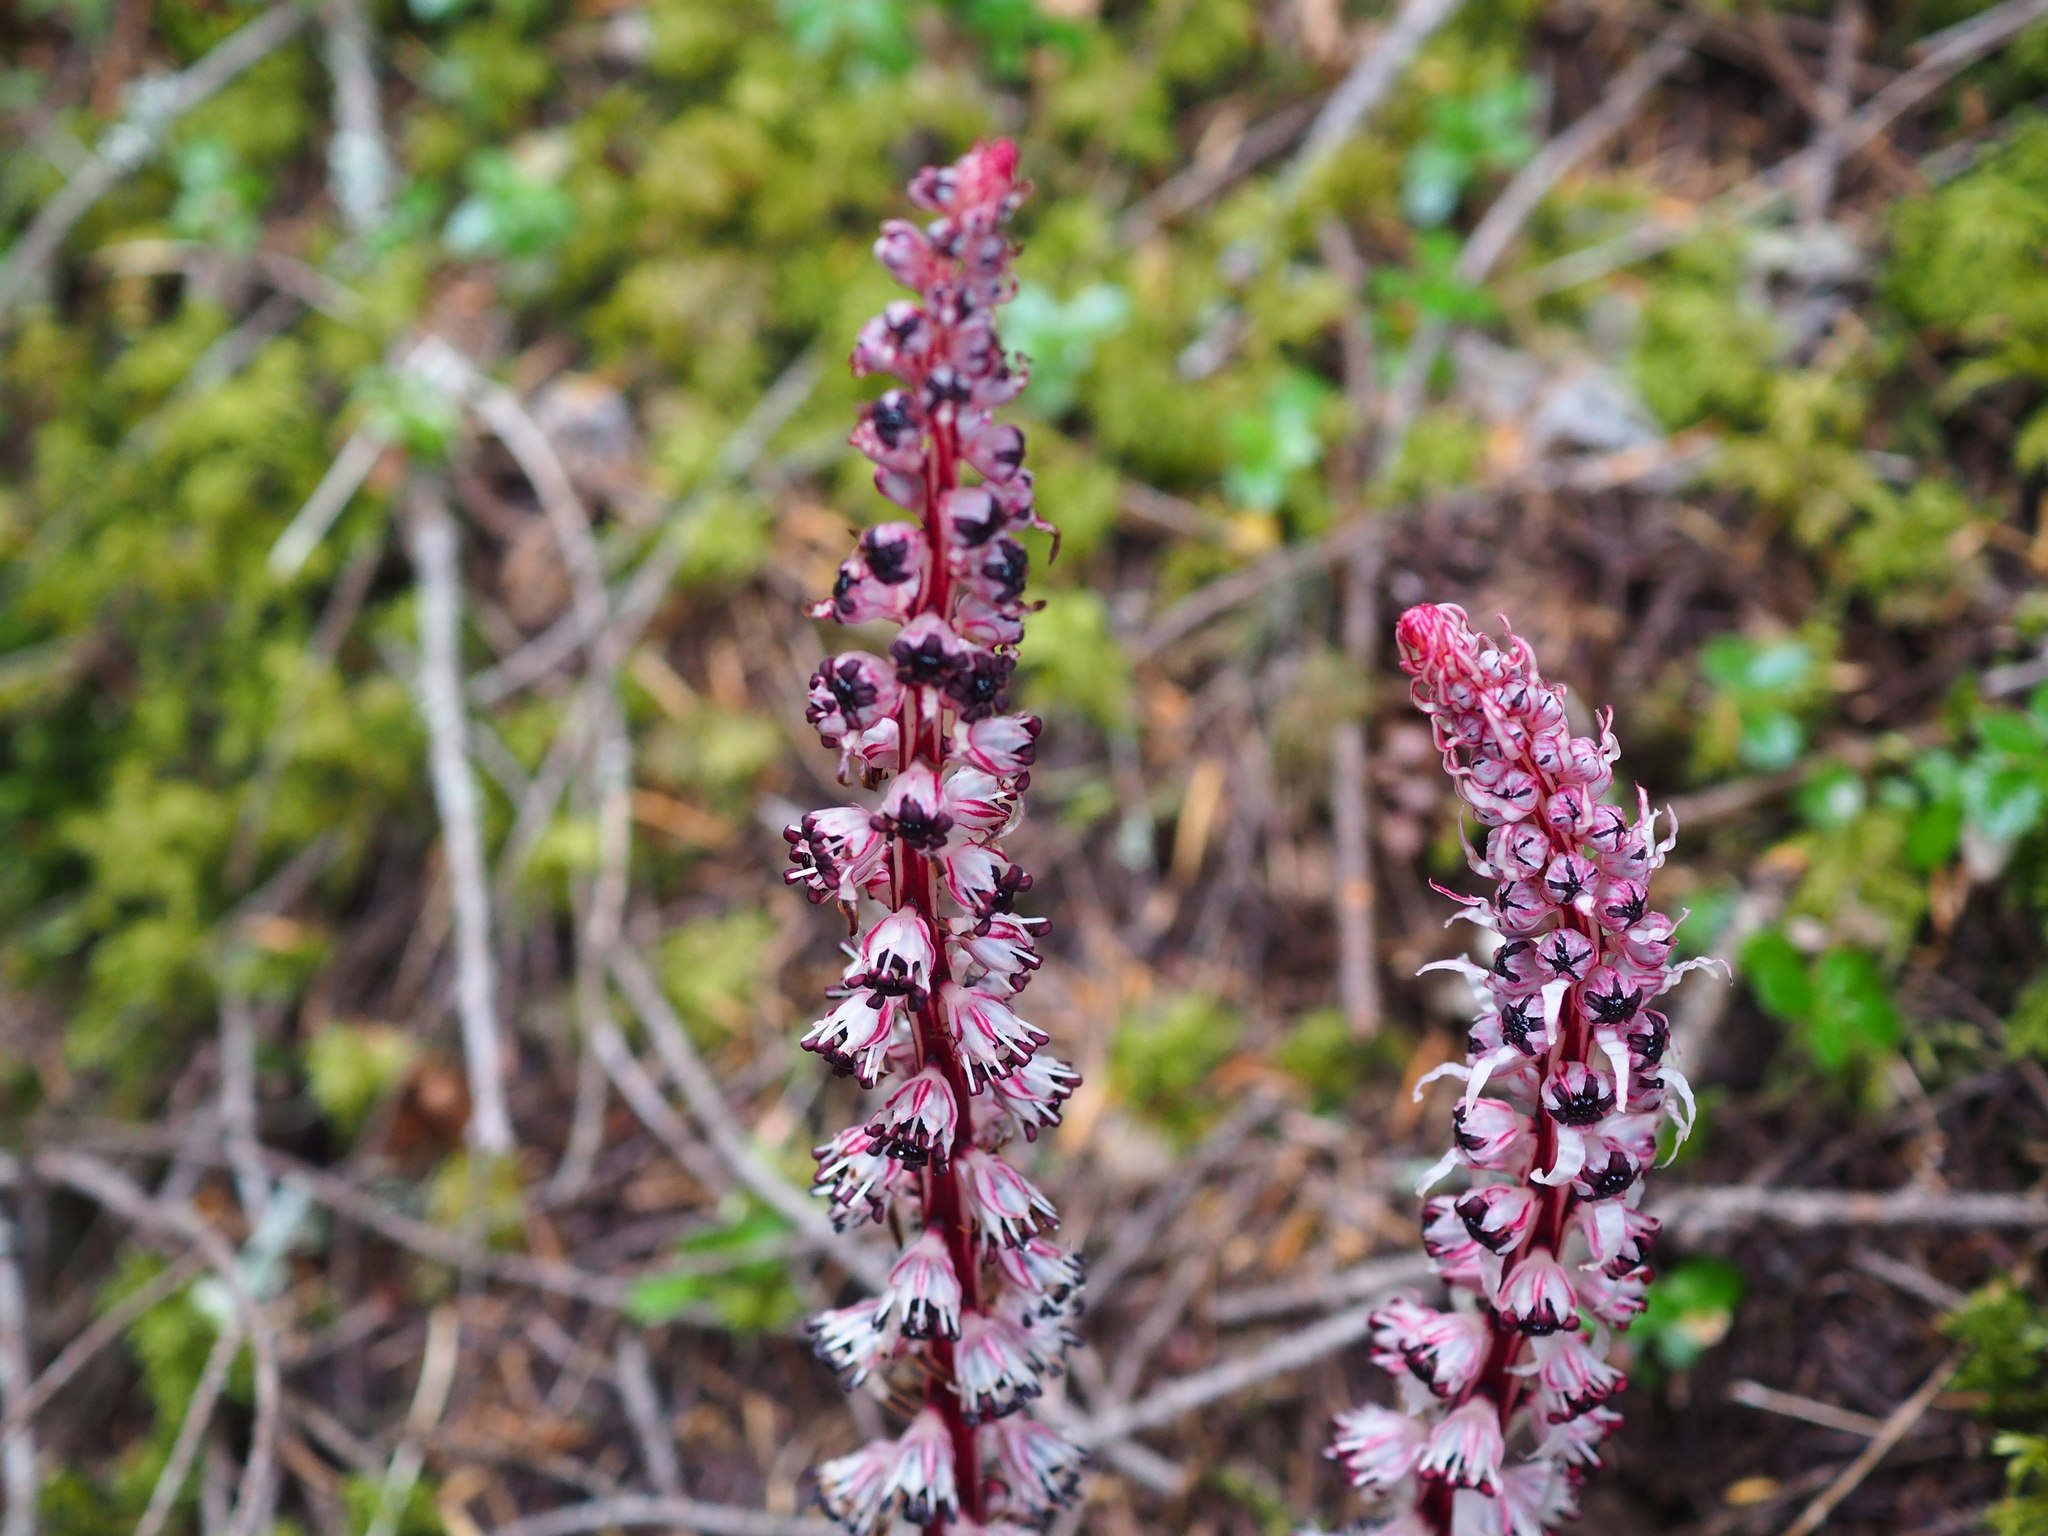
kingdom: Plantae
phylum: Tracheophyta
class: Magnoliopsida
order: Ericales
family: Ericaceae
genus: Allotropa
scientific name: Allotropa virgata
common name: Candy-striped allotropa
